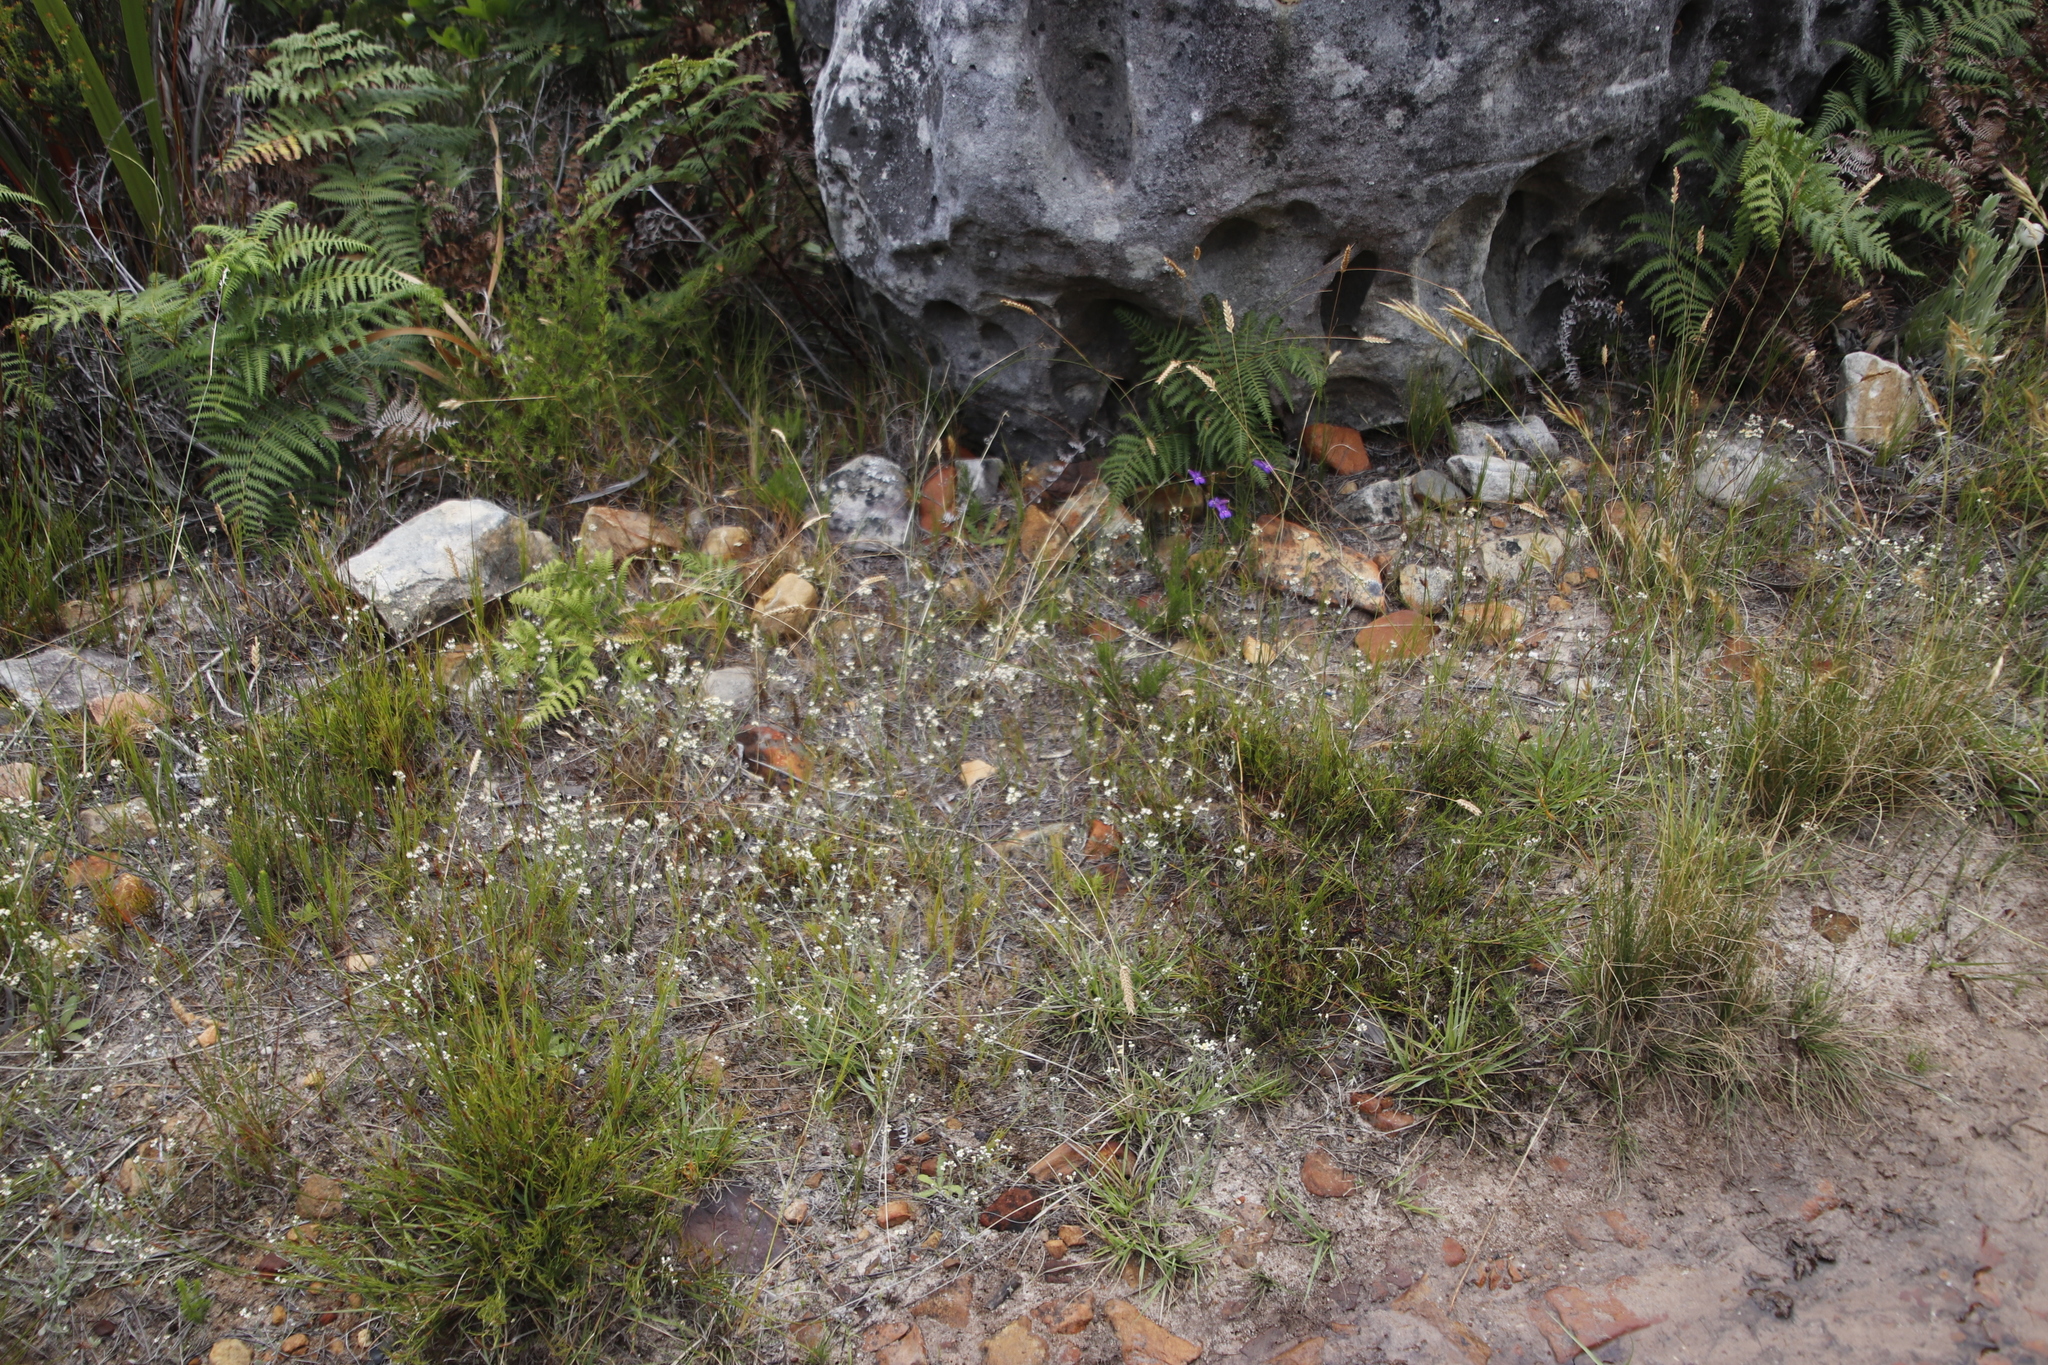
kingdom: Plantae
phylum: Tracheophyta
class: Magnoliopsida
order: Asterales
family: Asteraceae
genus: Helichrysum
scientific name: Helichrysum indicum
